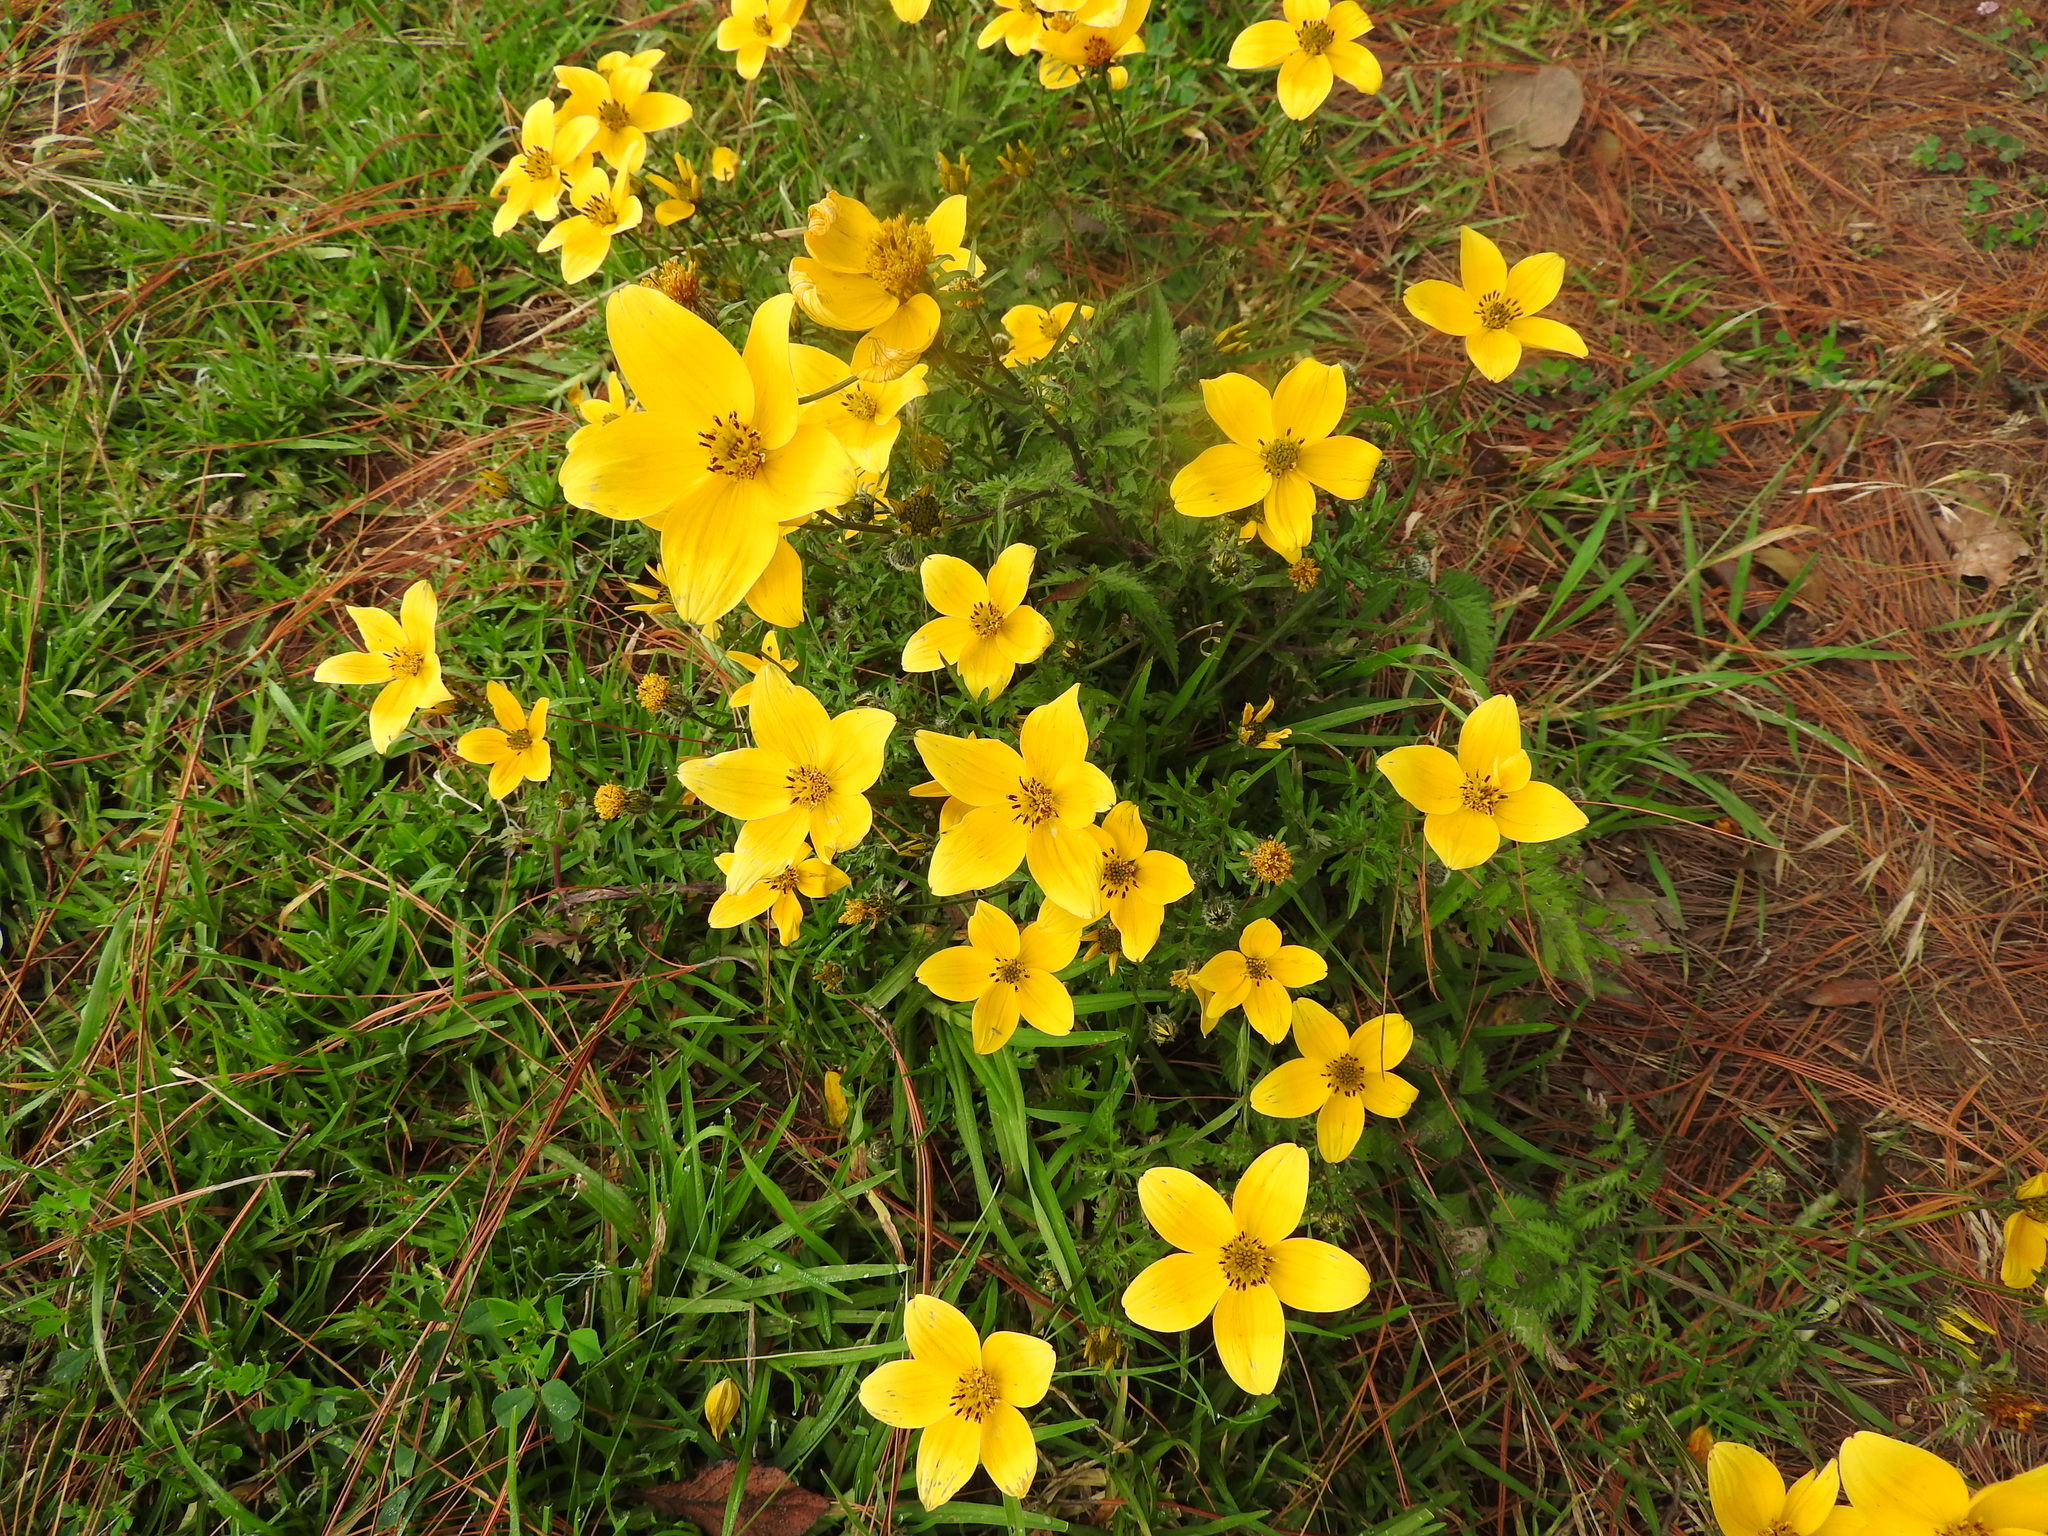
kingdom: Plantae
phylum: Tracheophyta
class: Magnoliopsida
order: Asterales
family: Asteraceae
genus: Bidens
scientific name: Bidens triplinervia
